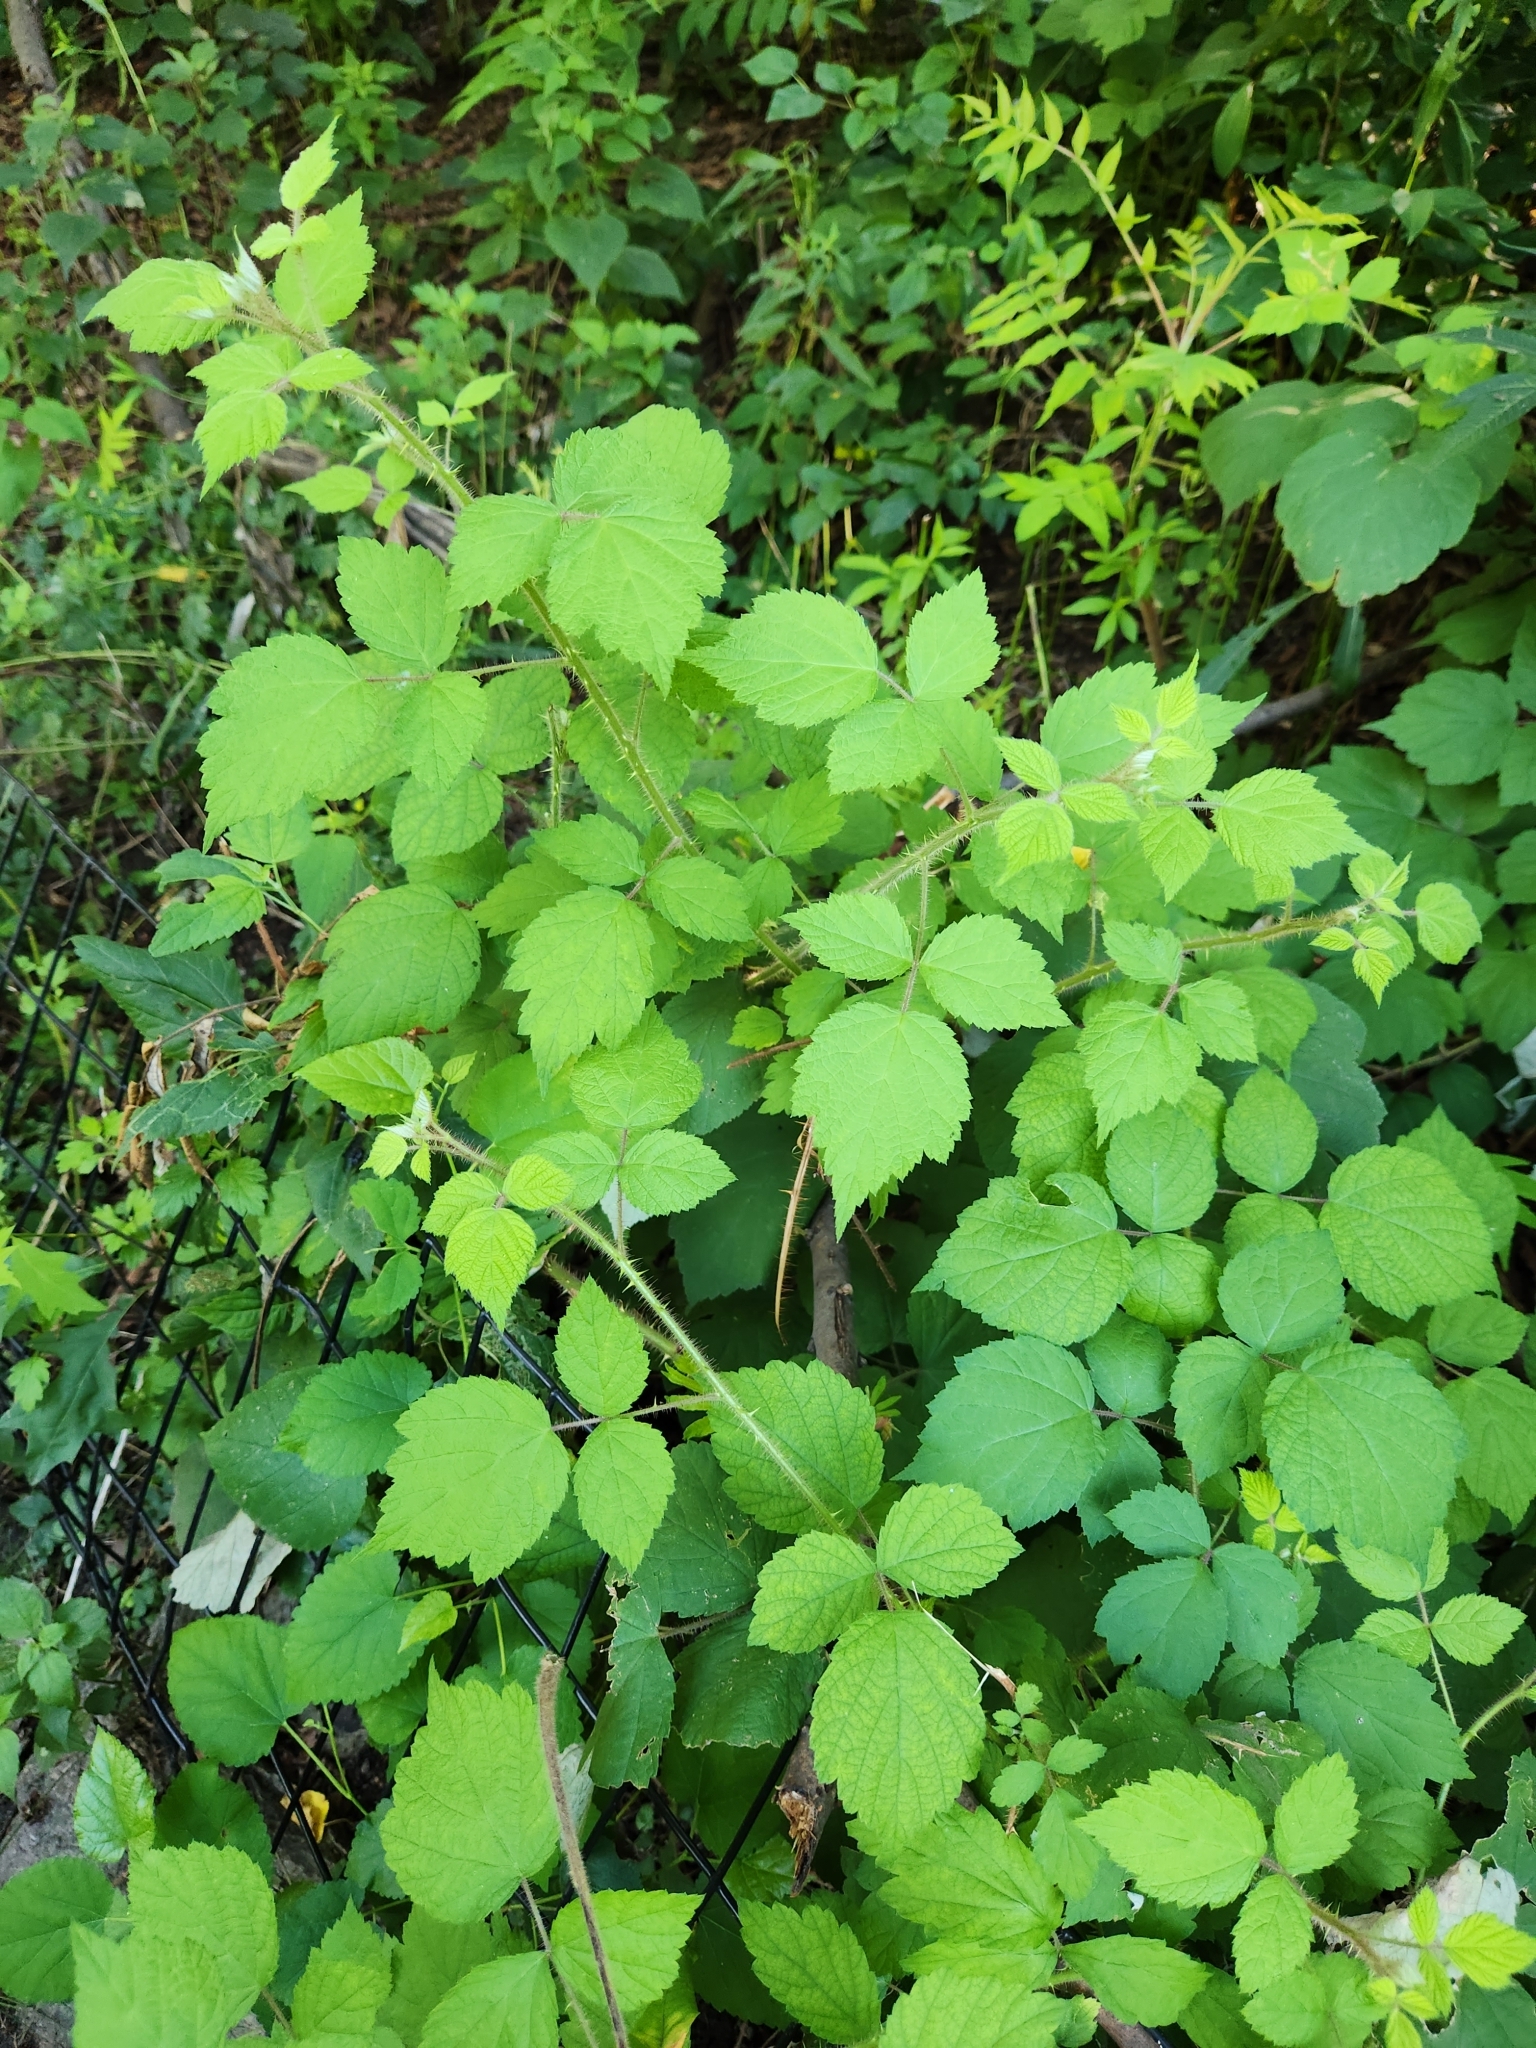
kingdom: Plantae
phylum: Tracheophyta
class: Magnoliopsida
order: Rosales
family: Rosaceae
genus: Rubus
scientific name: Rubus phoenicolasius
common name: Japanese wineberry
